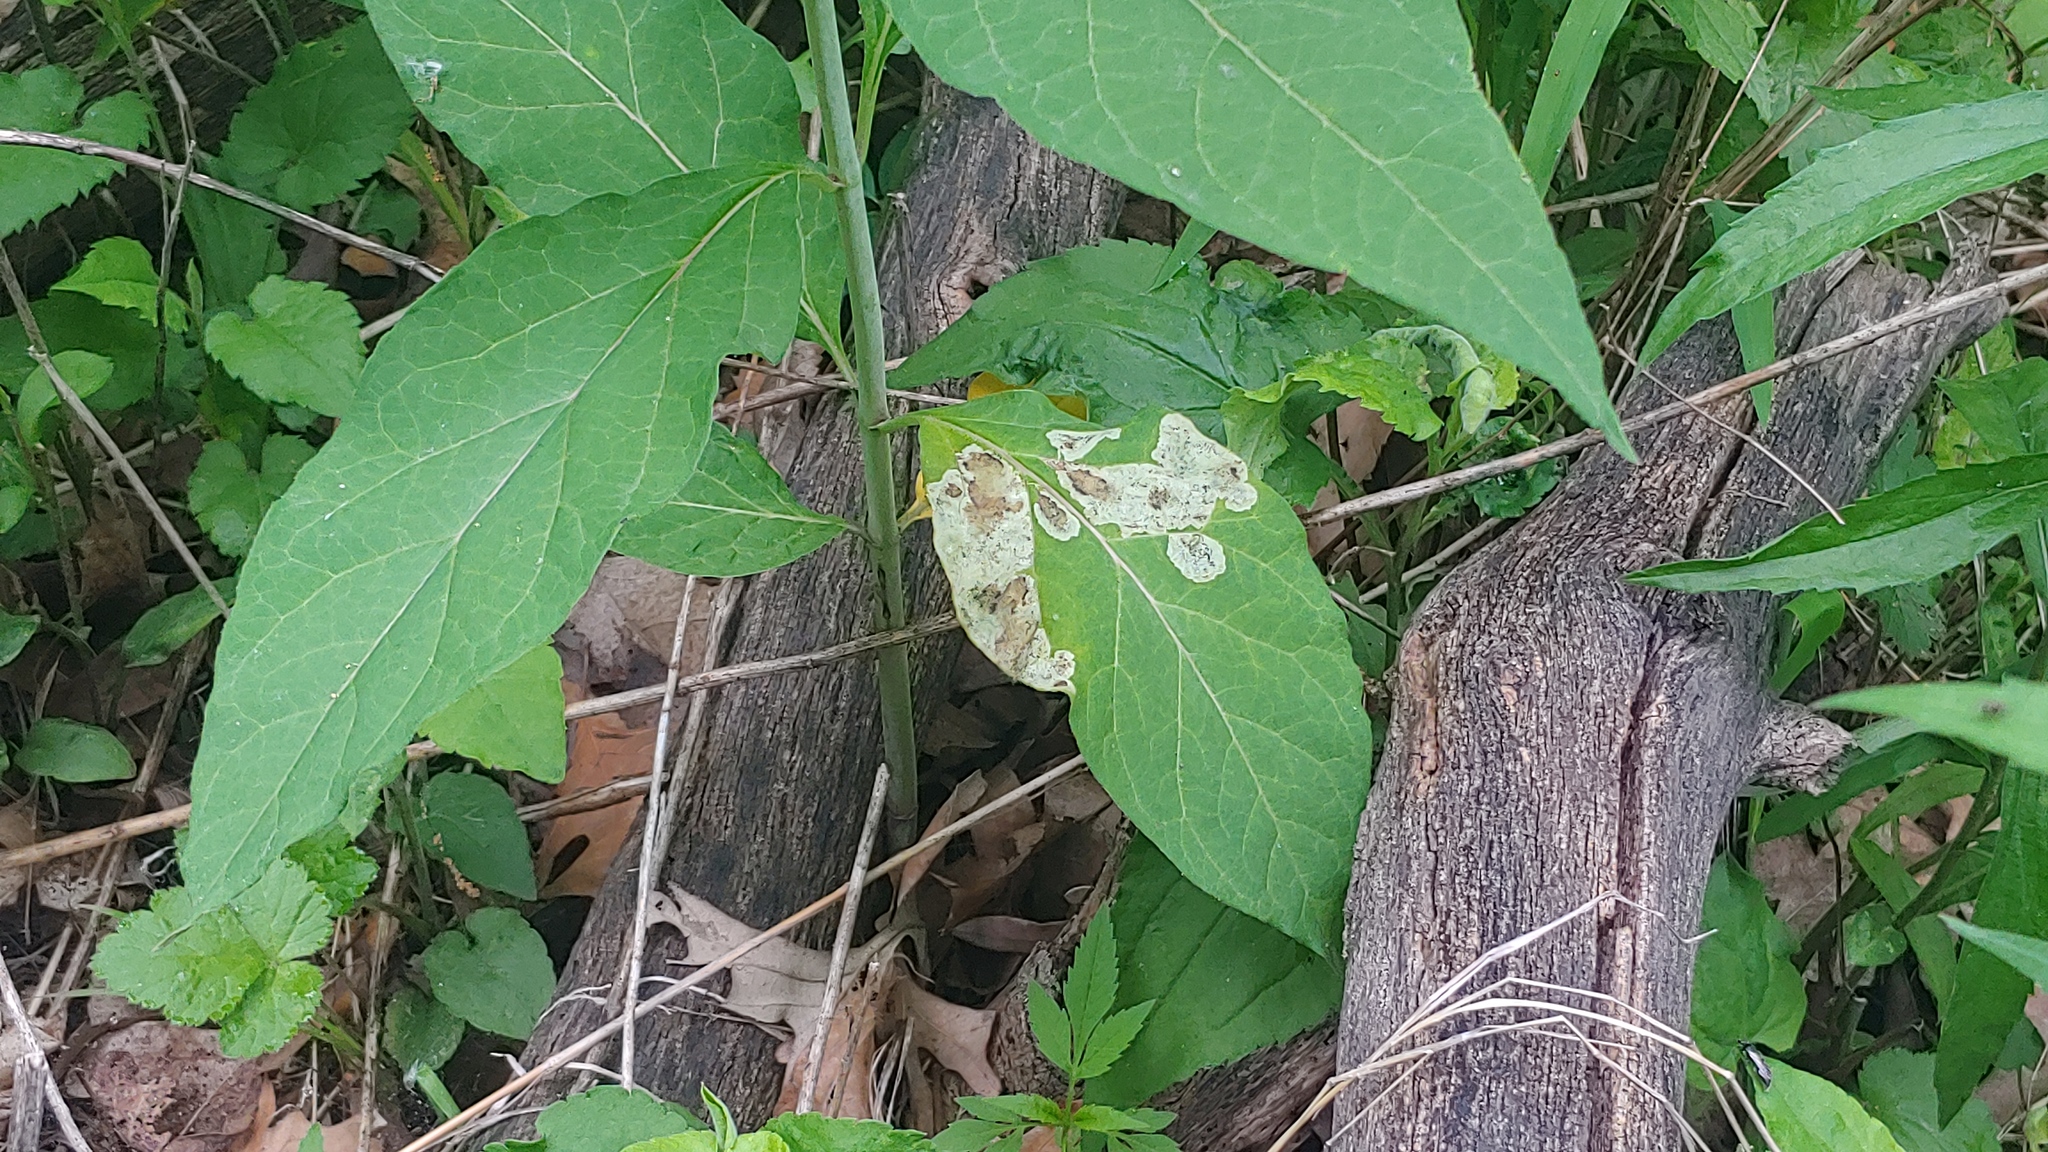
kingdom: Animalia
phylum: Arthropoda
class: Insecta
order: Diptera
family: Agromyzidae
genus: Liriomyza
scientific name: Liriomyza asclepiadis
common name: Milkweed leaf-miner fly
